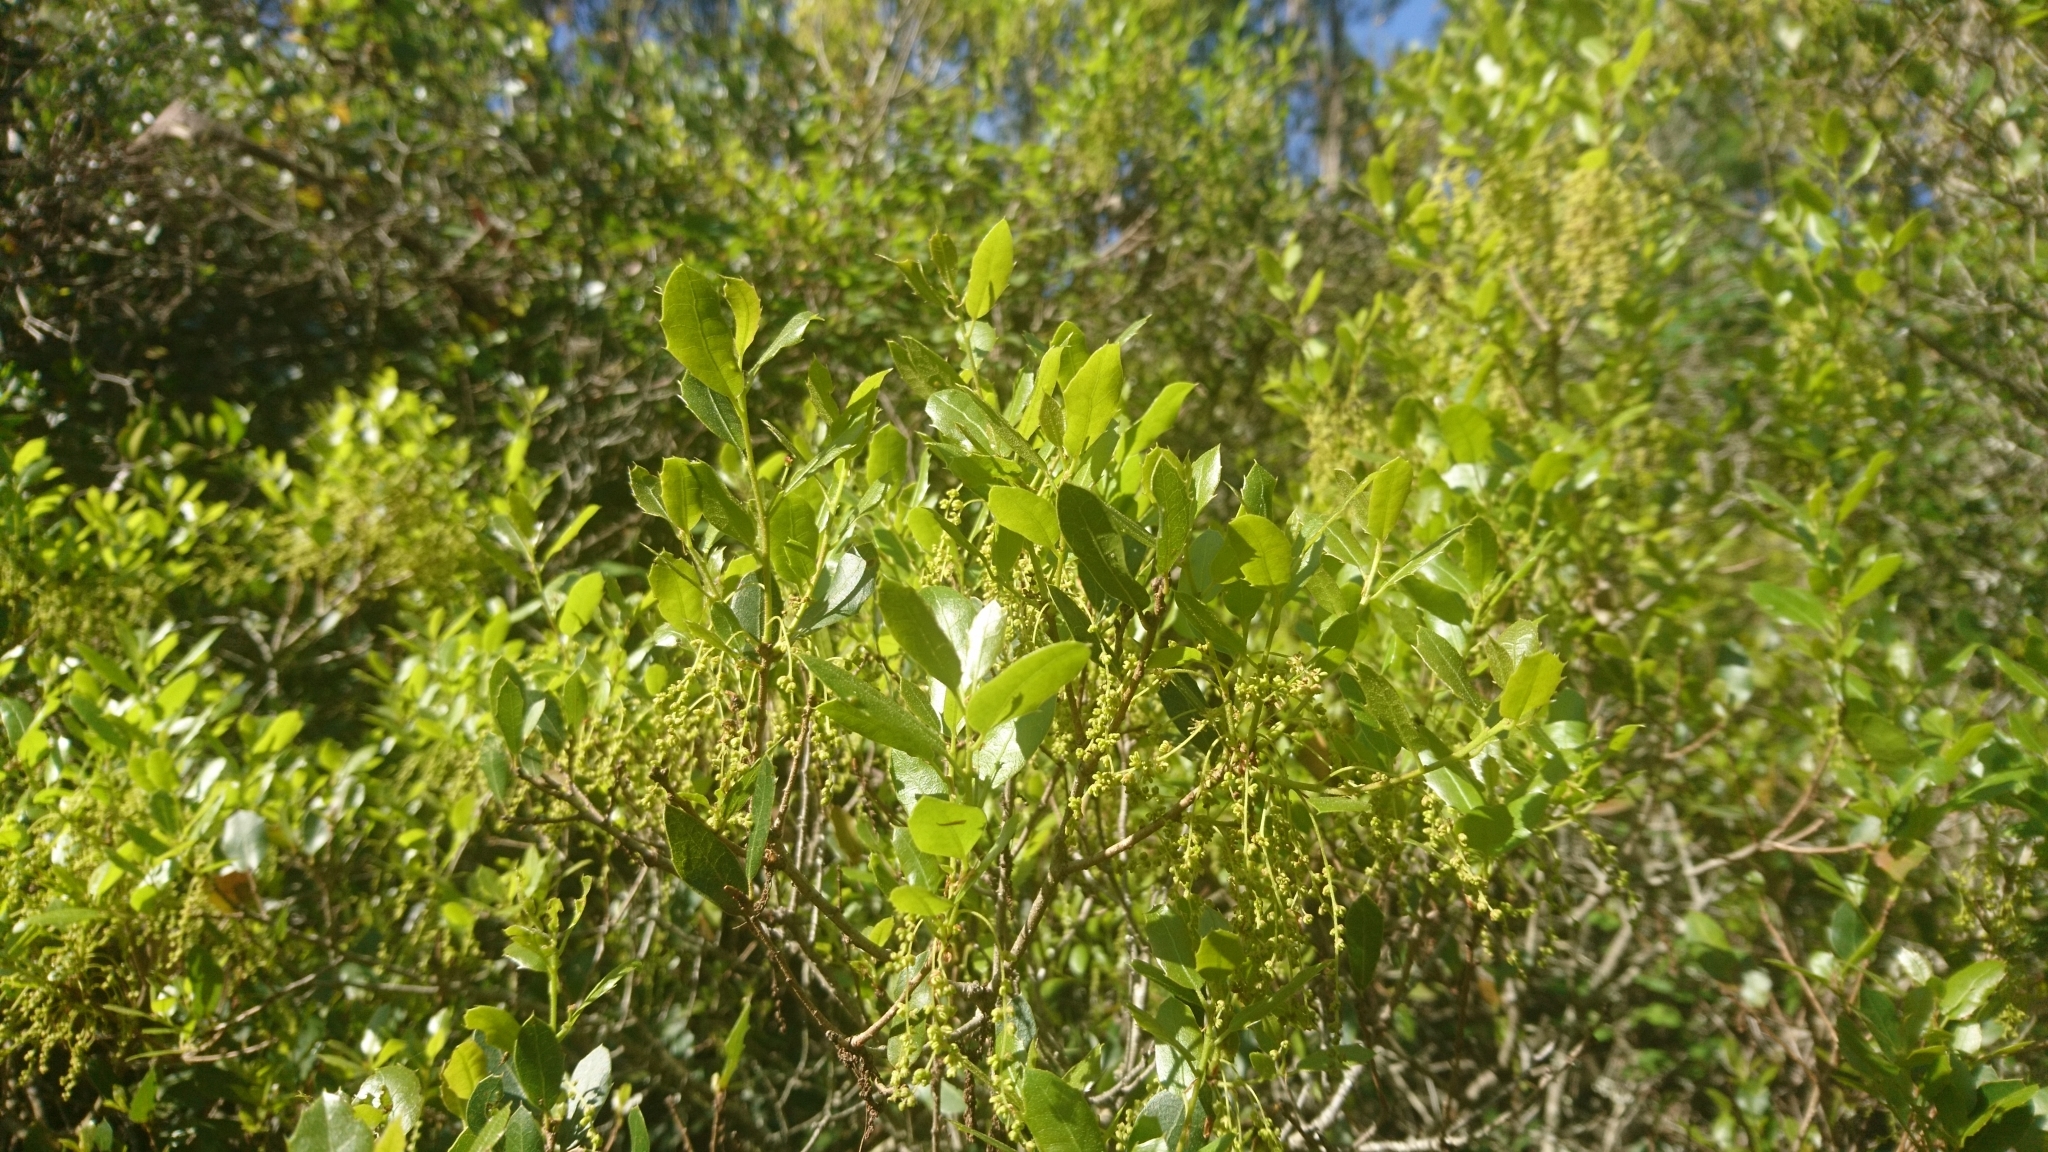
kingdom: Plantae
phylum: Tracheophyta
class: Magnoliopsida
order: Fagales
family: Fagaceae
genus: Quercus
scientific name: Quercus coccifera
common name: Kermes oak
